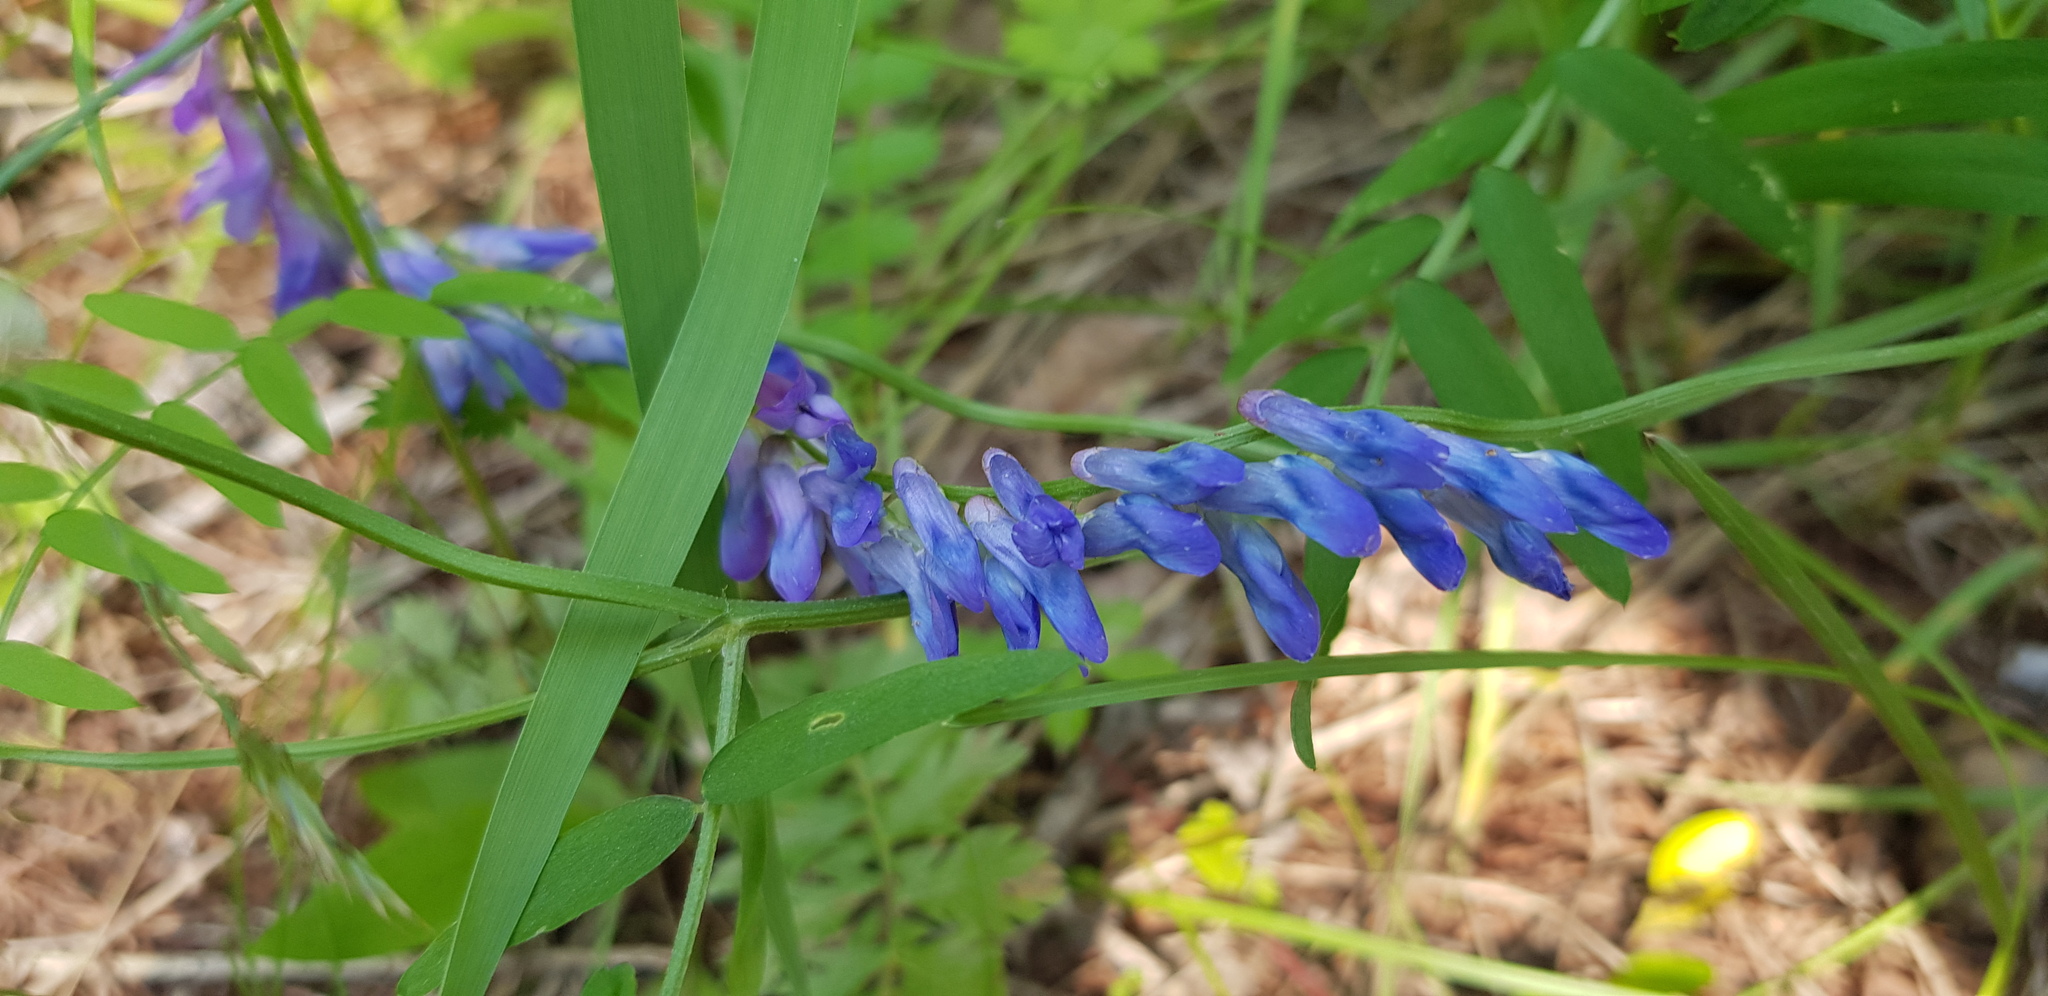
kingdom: Plantae
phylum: Tracheophyta
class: Magnoliopsida
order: Fabales
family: Fabaceae
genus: Vicia
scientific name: Vicia cracca
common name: Bird vetch
